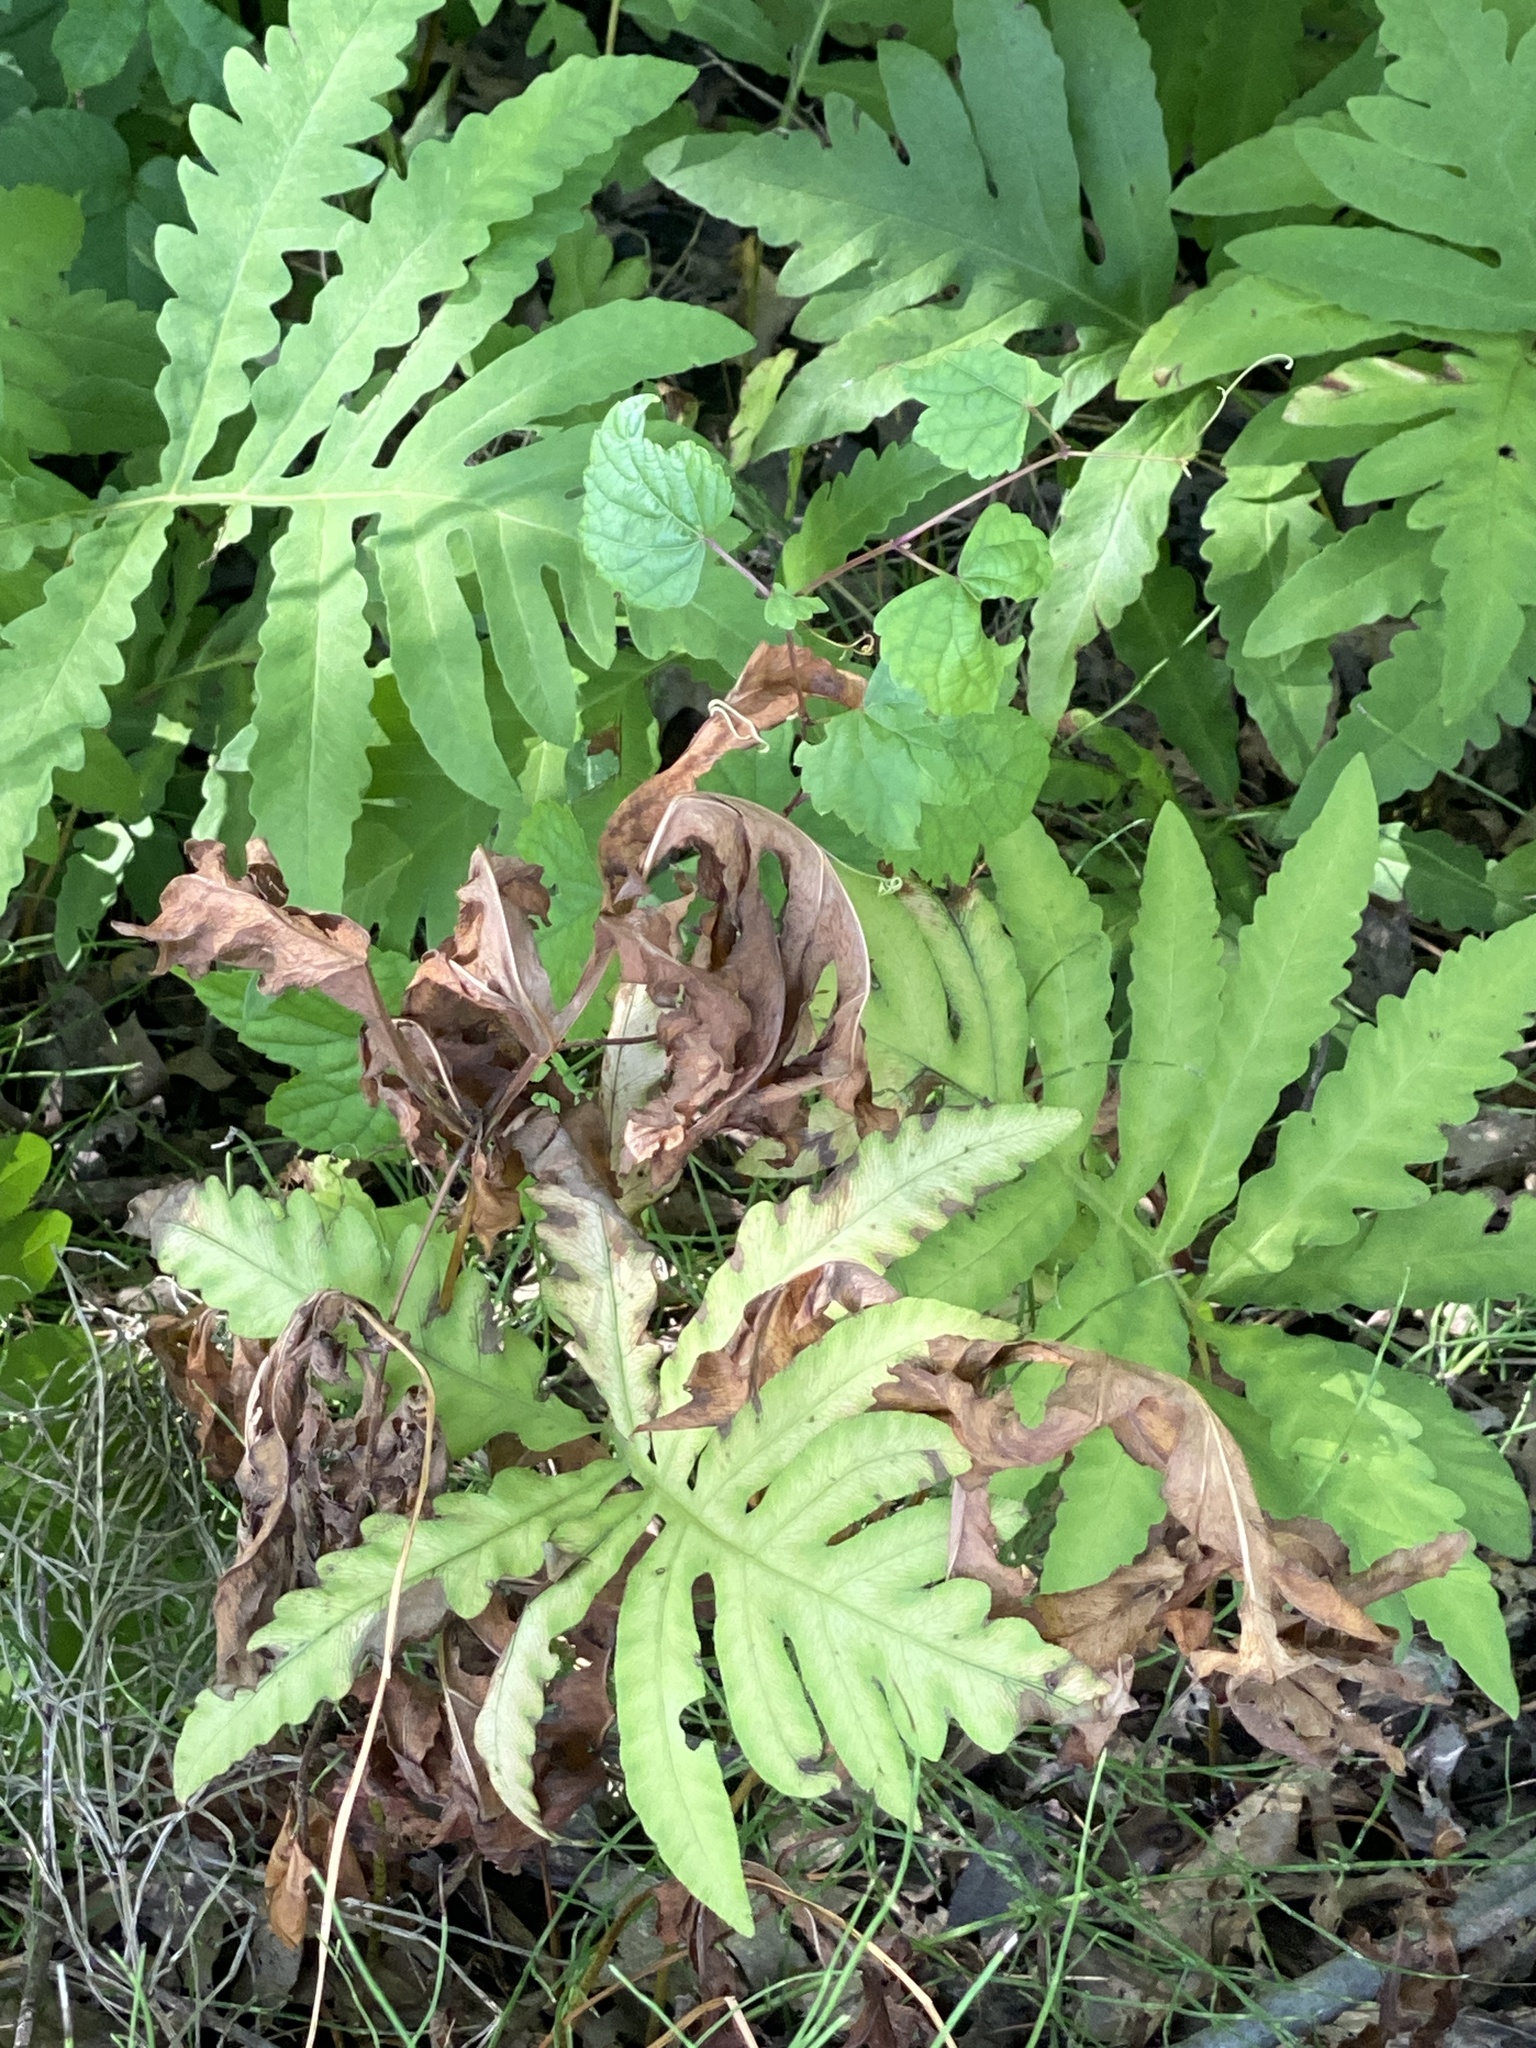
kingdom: Plantae
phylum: Tracheophyta
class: Polypodiopsida
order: Polypodiales
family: Onocleaceae
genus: Onoclea
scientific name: Onoclea sensibilis
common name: Sensitive fern
